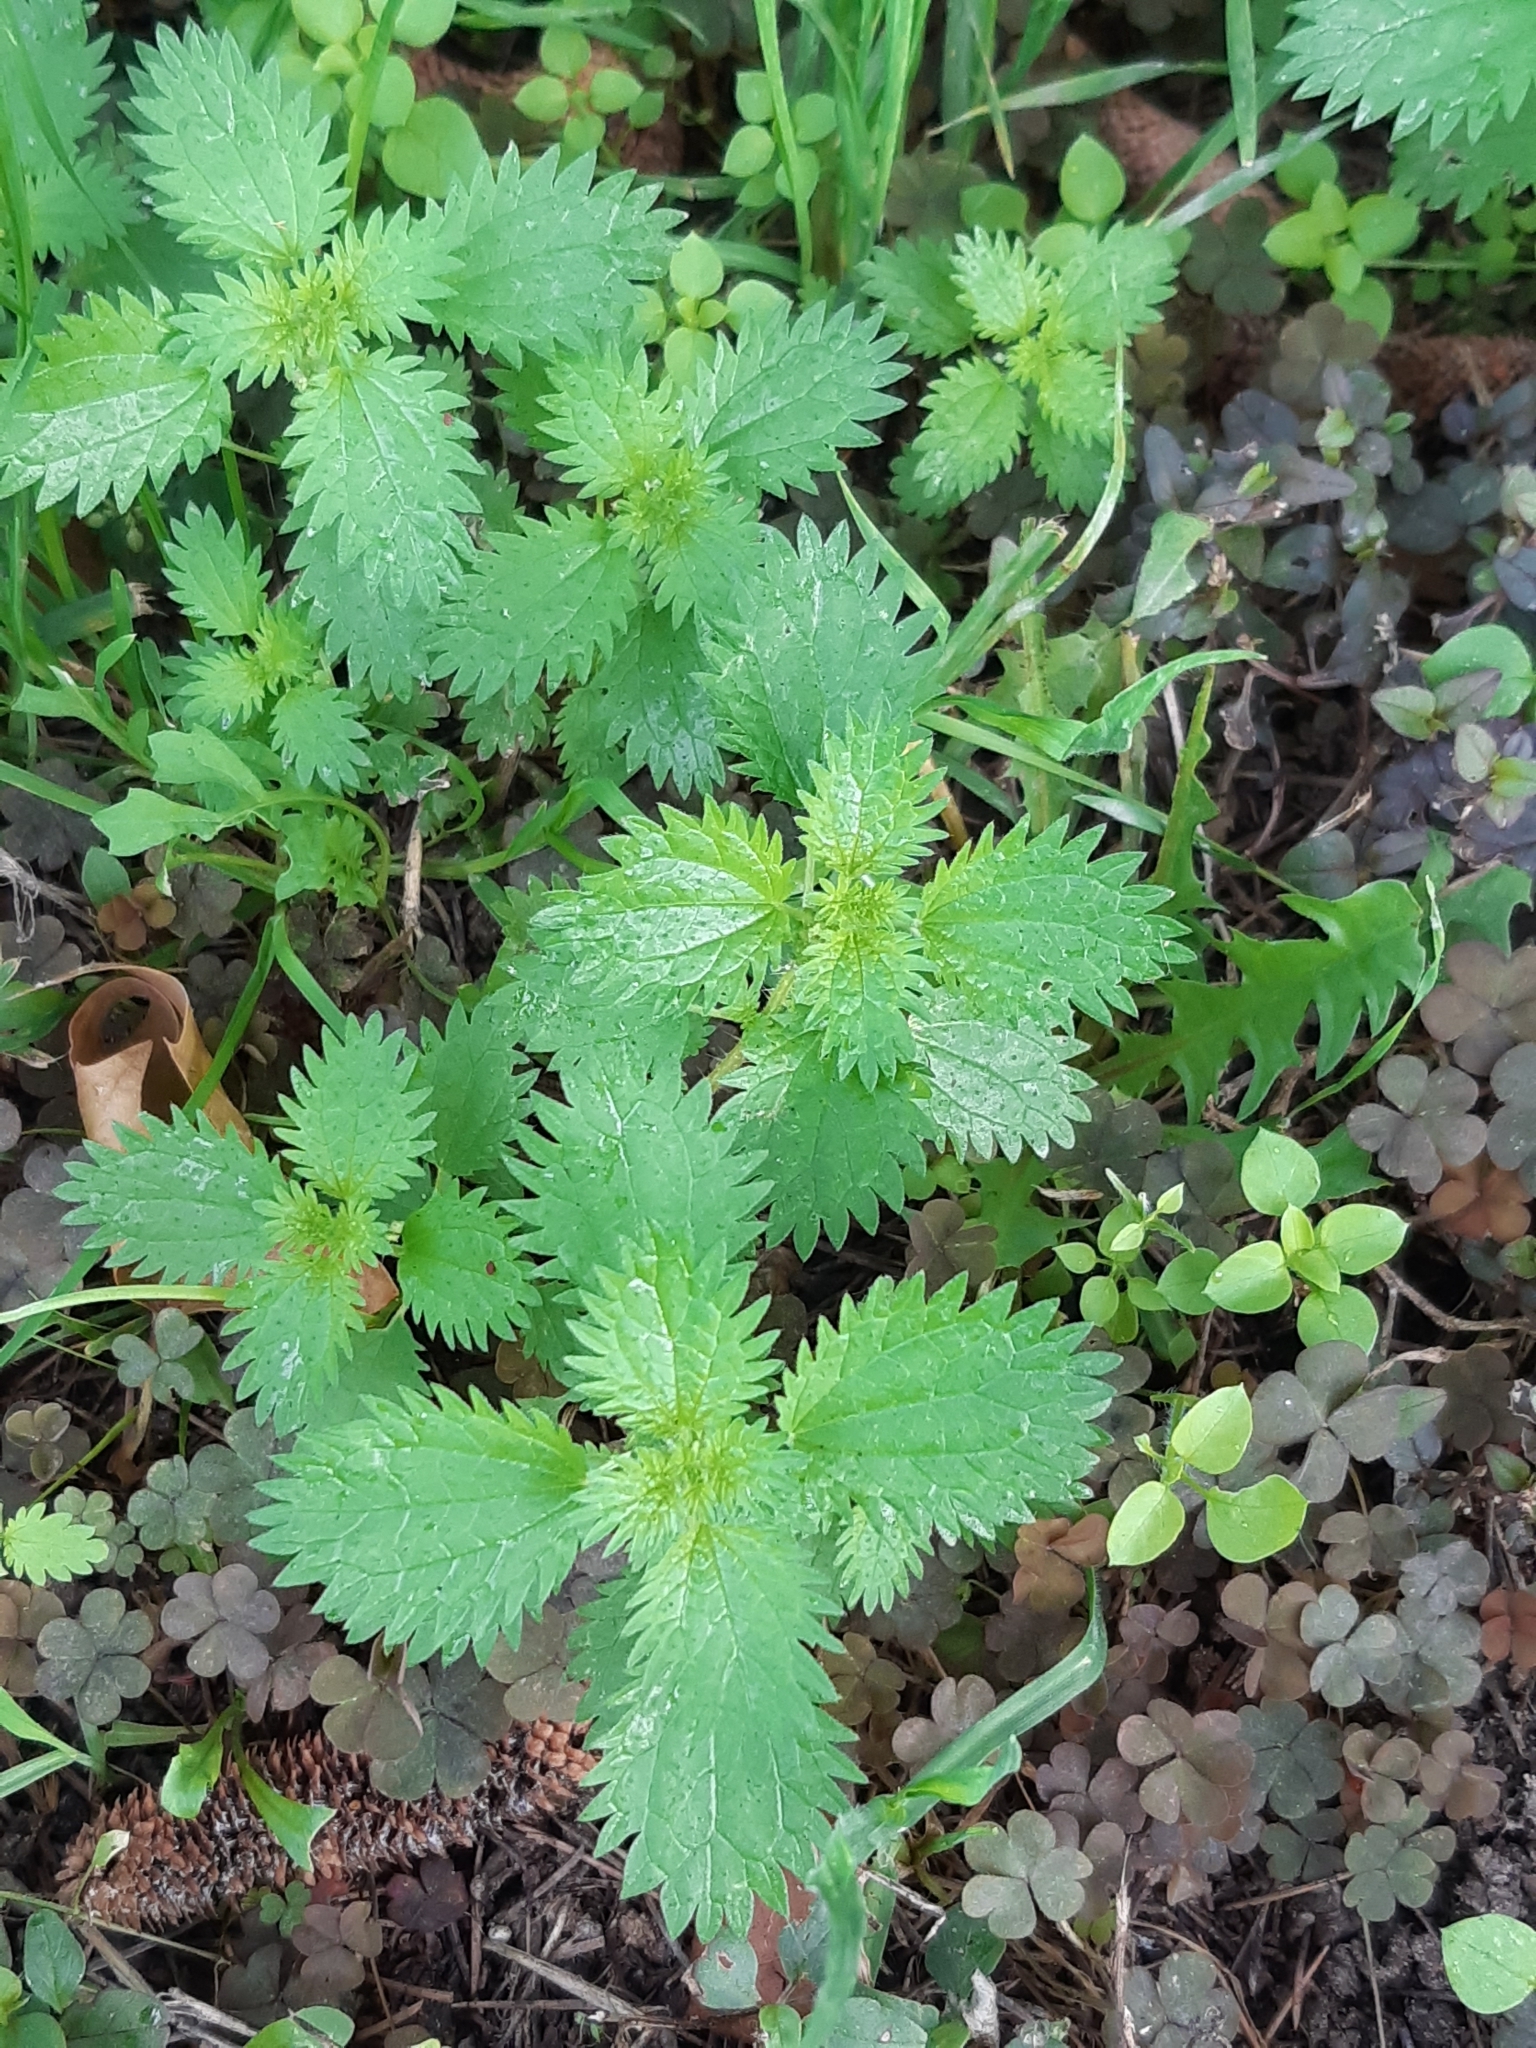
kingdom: Plantae
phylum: Tracheophyta
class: Magnoliopsida
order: Rosales
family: Urticaceae
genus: Urtica
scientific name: Urtica urens
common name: Dwarf nettle
